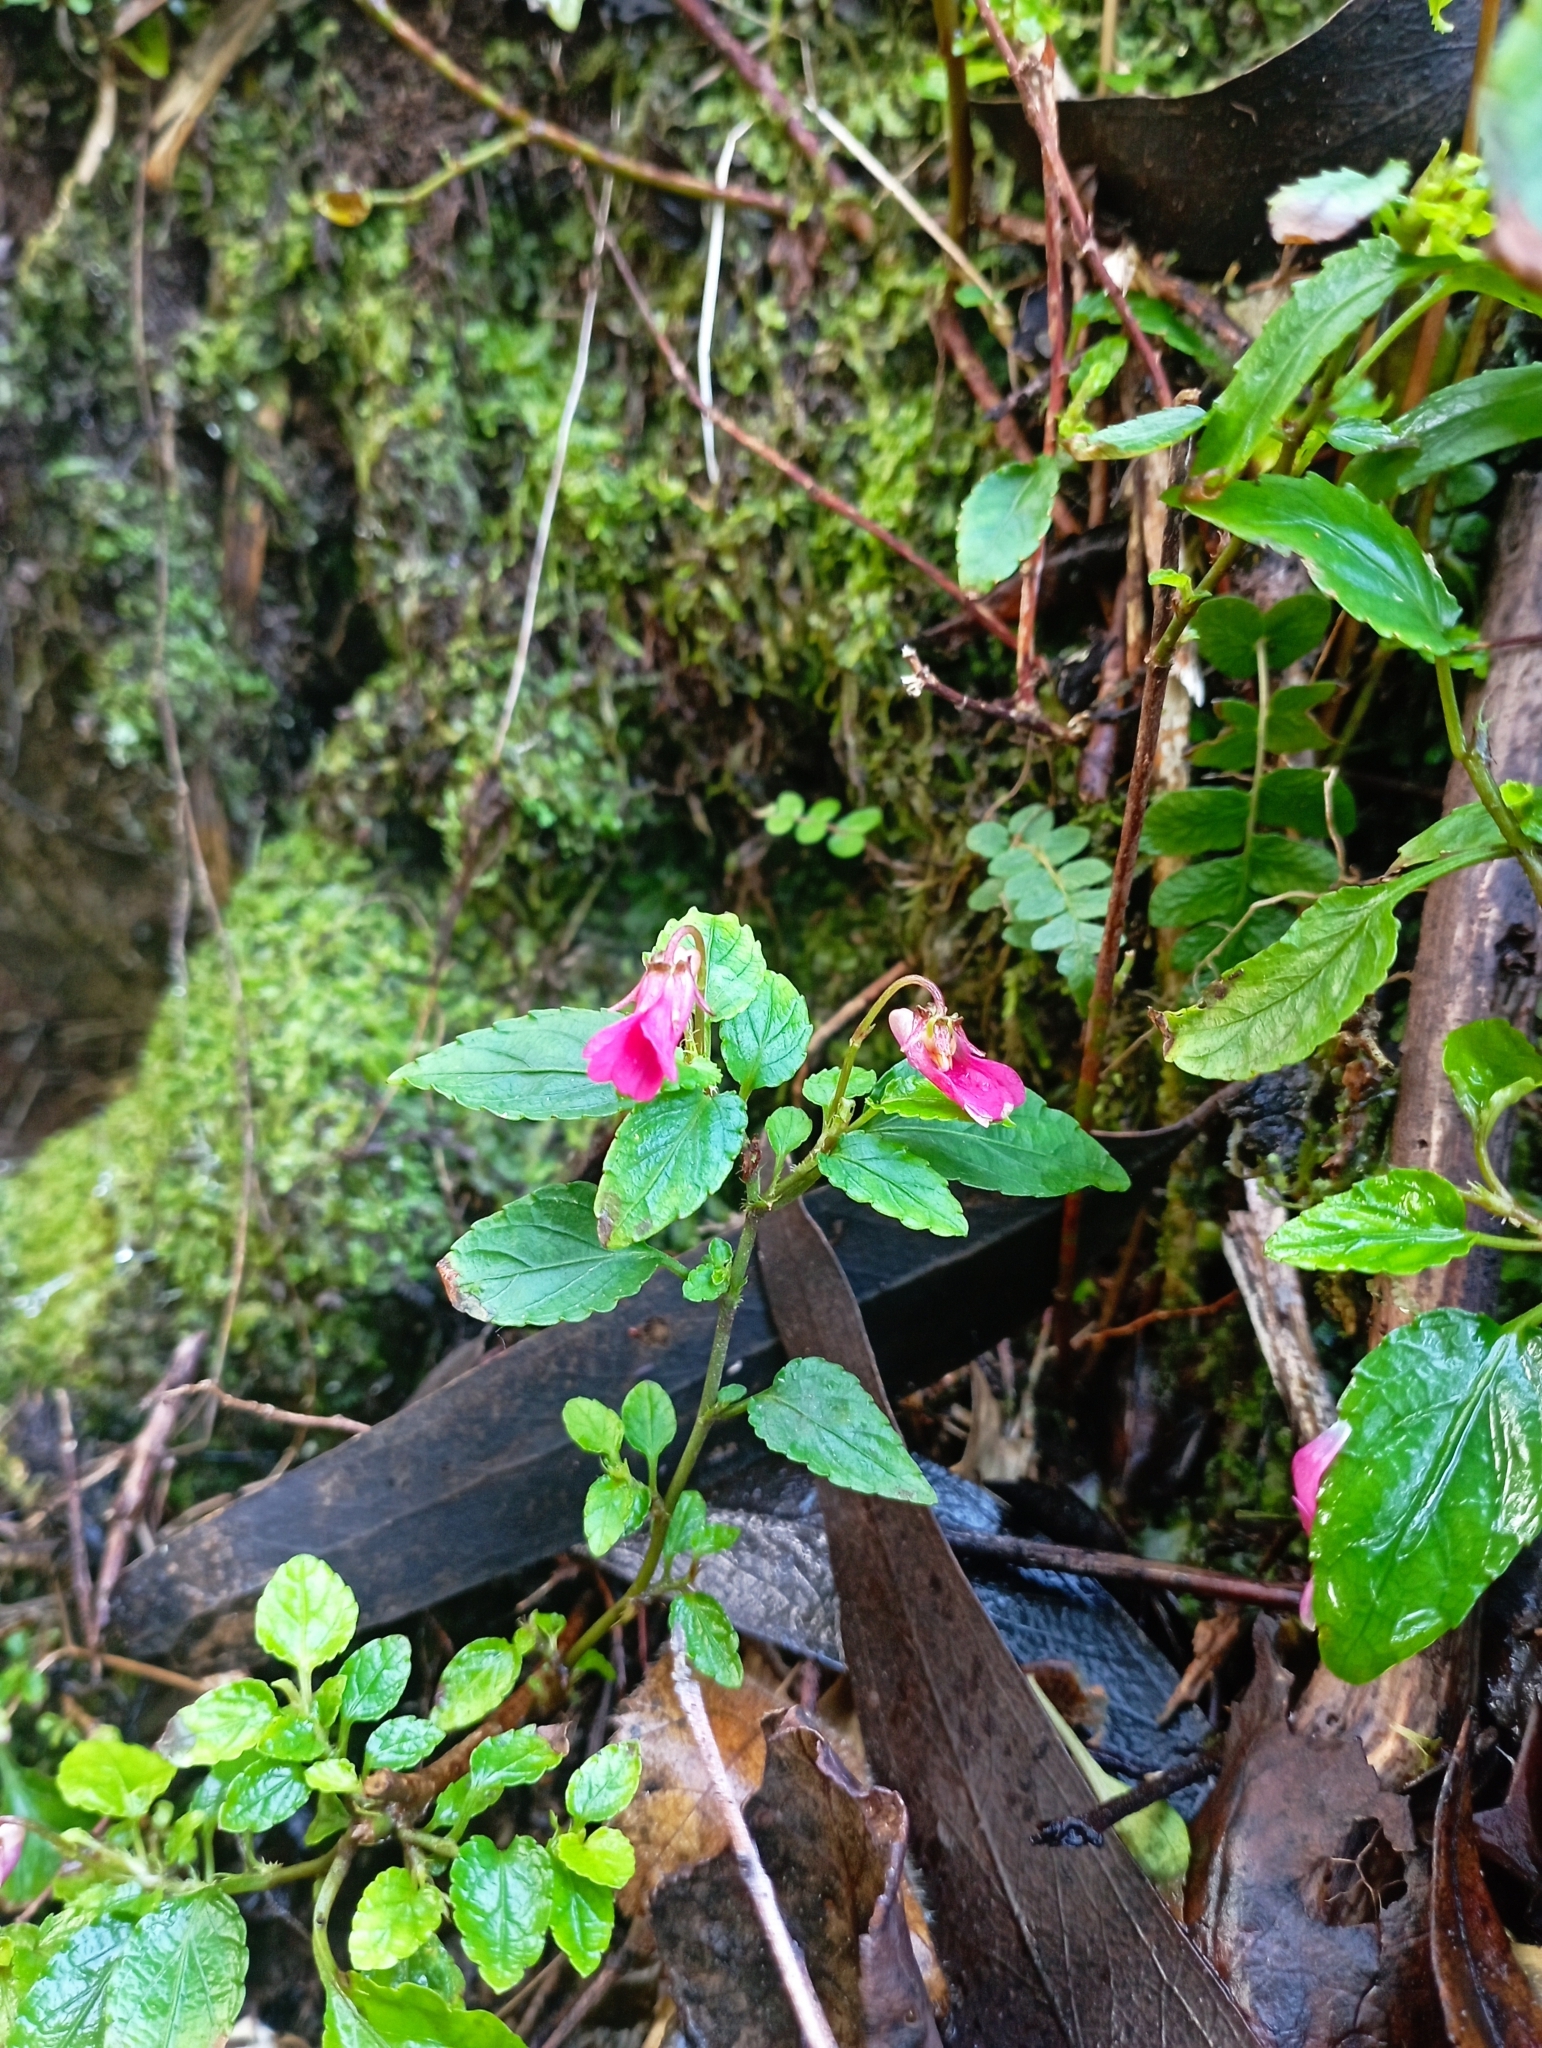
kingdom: Plantae
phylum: Tracheophyta
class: Magnoliopsida
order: Malpighiales
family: Violaceae
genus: Viola
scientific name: Viola rubella
